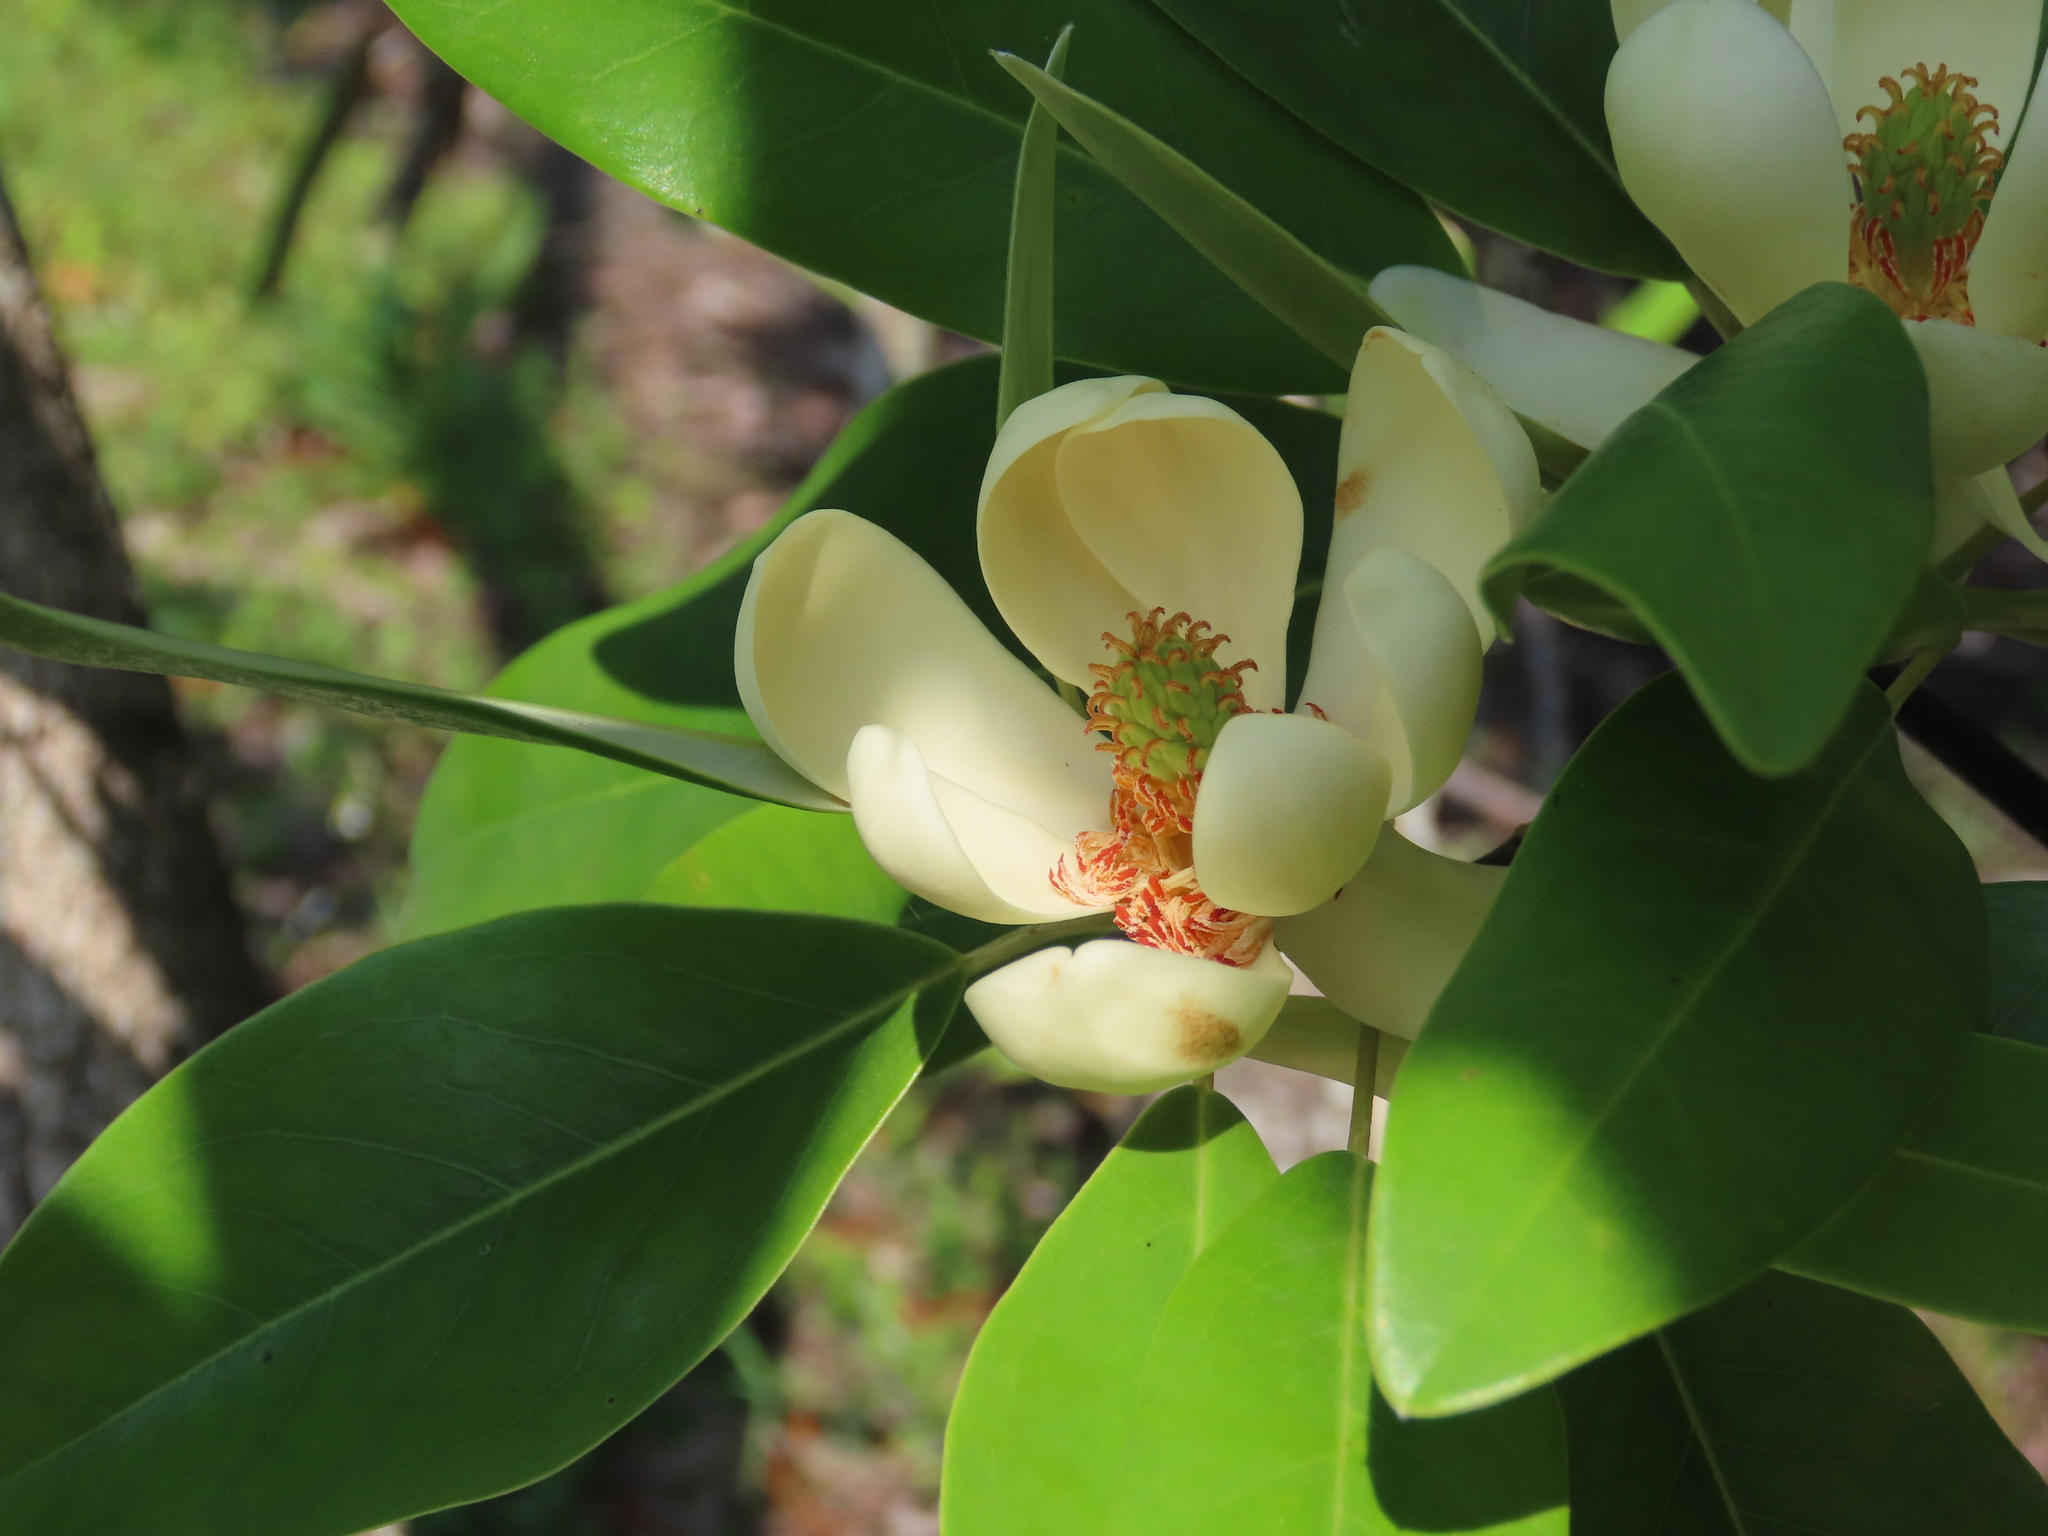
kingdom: Plantae
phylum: Tracheophyta
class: Magnoliopsida
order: Magnoliales
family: Magnoliaceae
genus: Magnolia
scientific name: Magnolia virginiana
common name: Swamp bay
